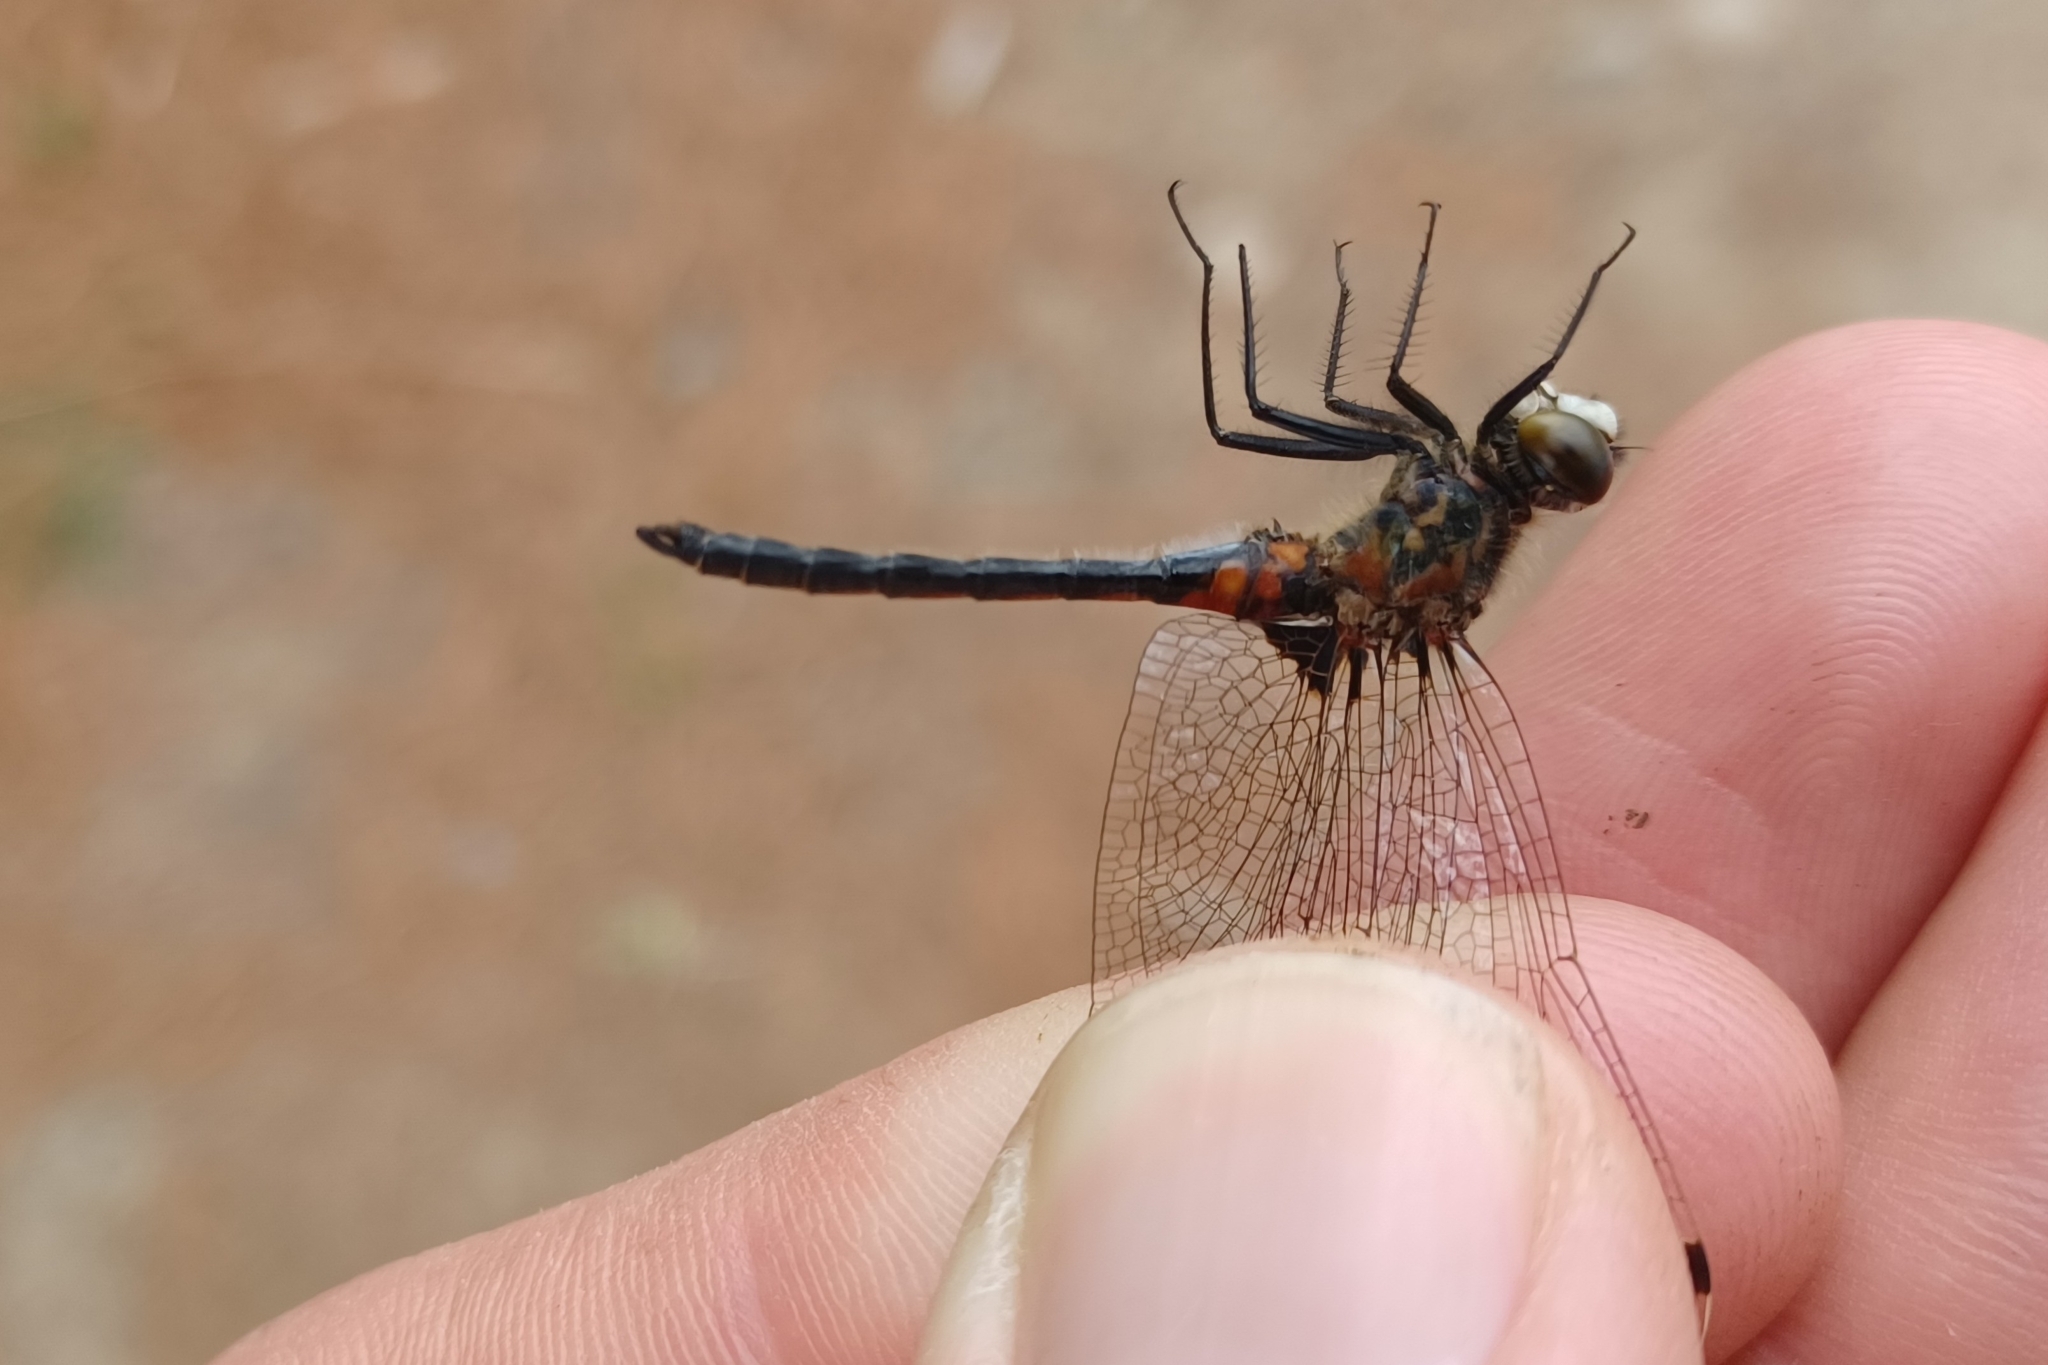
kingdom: Animalia
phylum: Arthropoda
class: Insecta
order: Odonata
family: Libellulidae
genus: Leucorrhinia
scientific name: Leucorrhinia hudsonica
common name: Hudsonian whiteface
